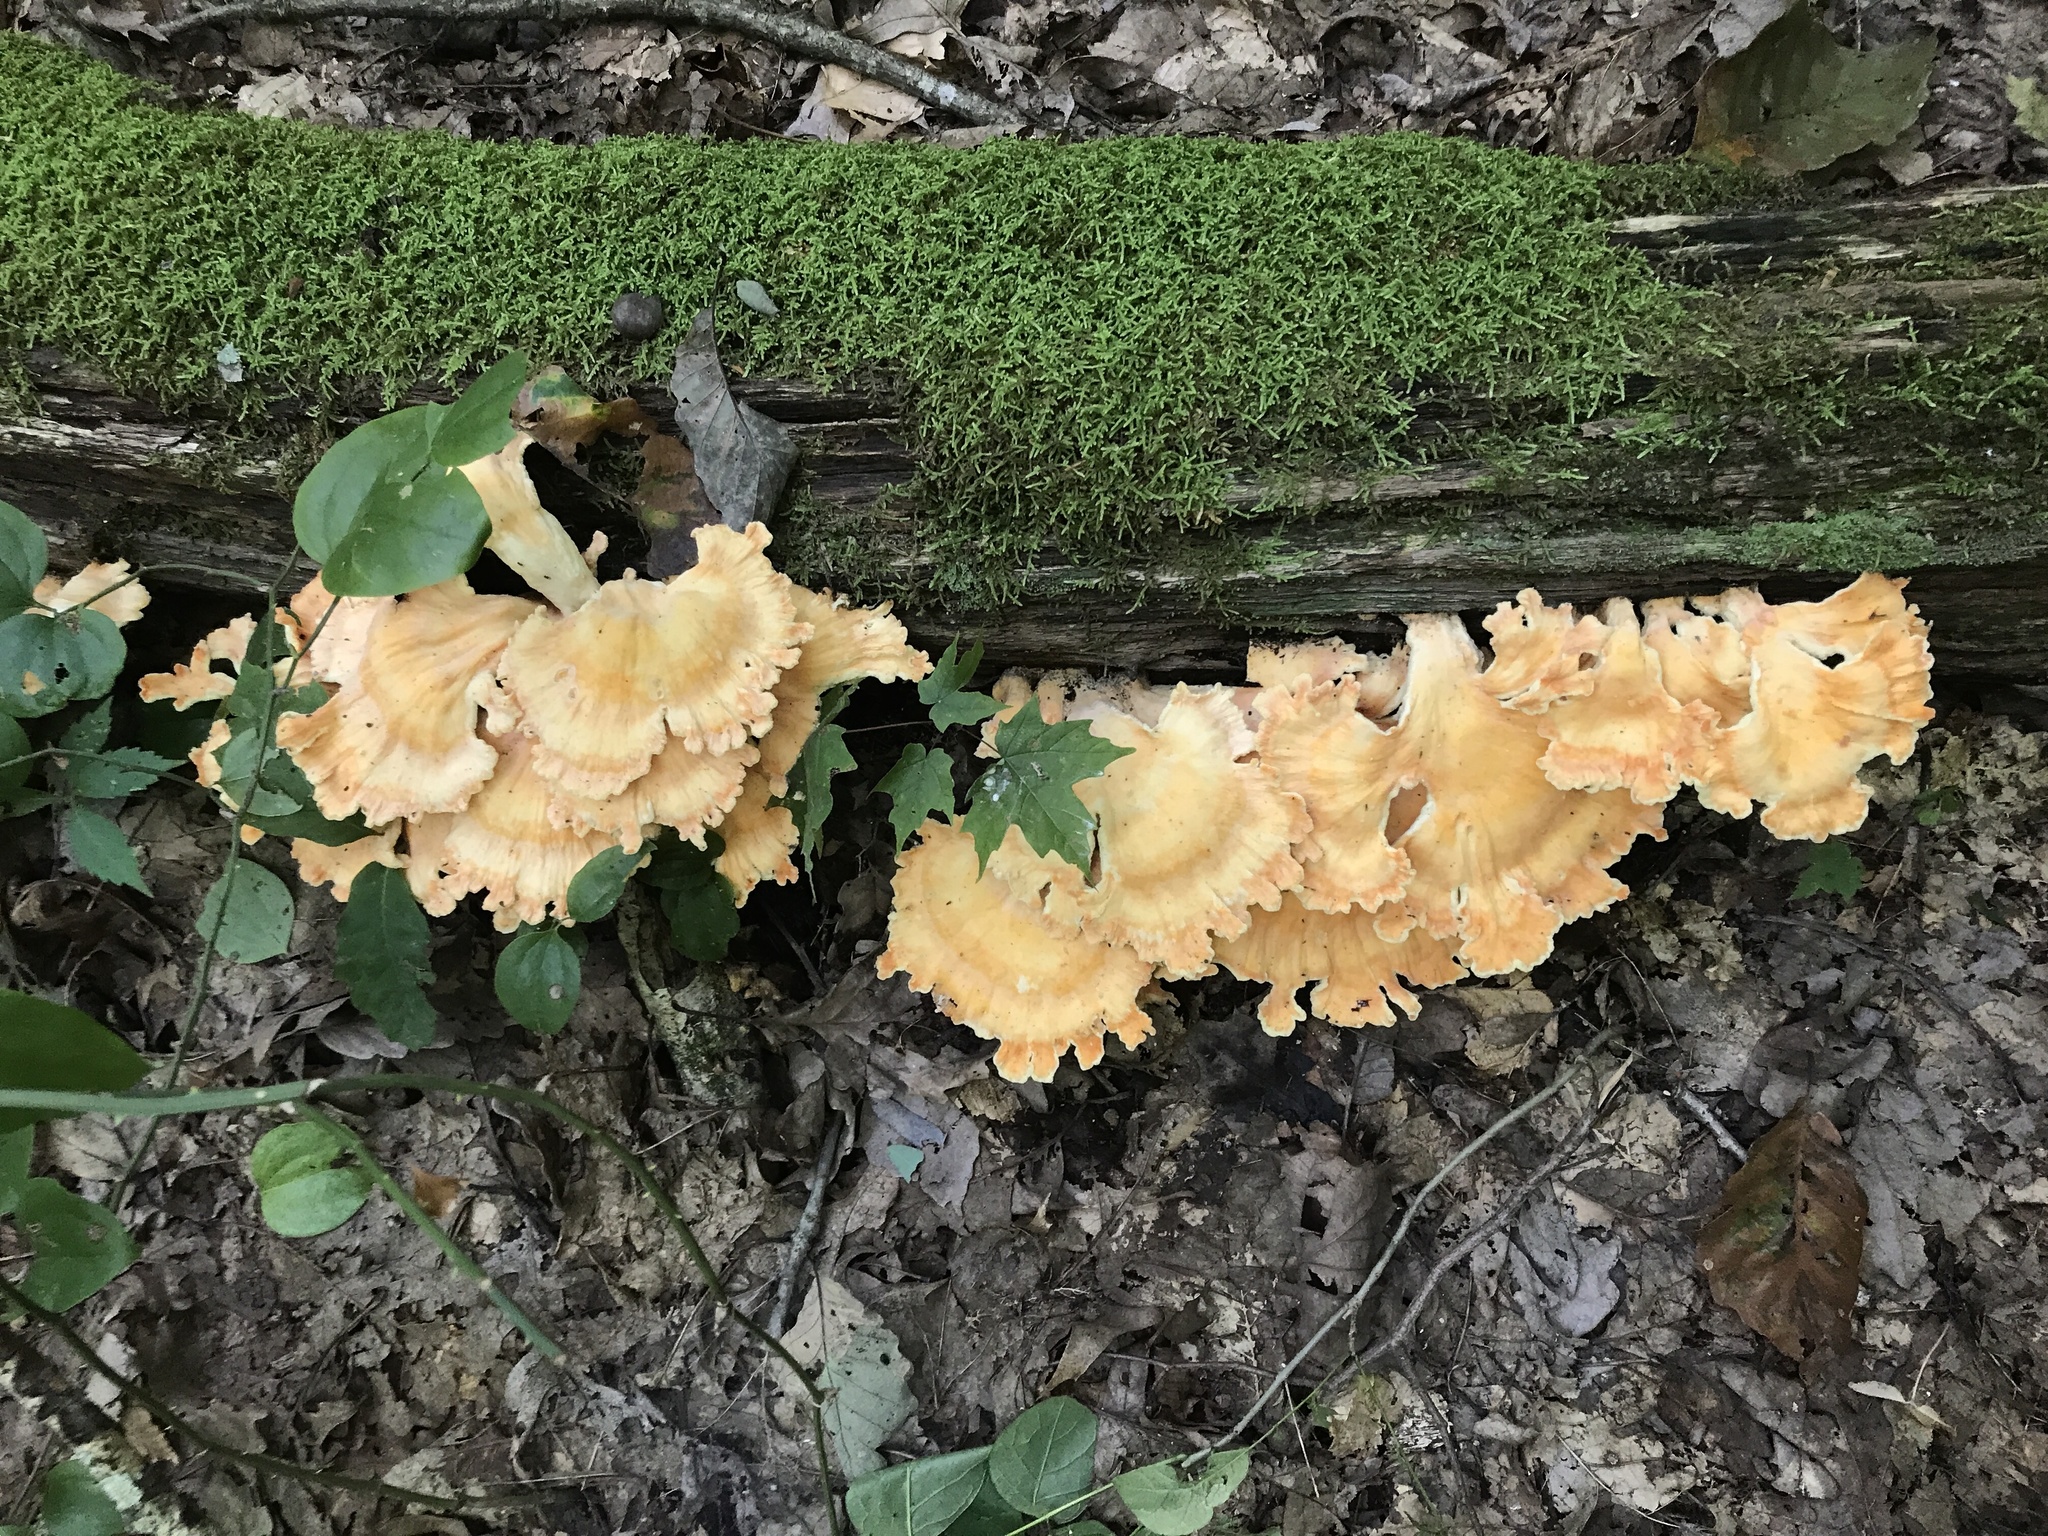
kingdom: Fungi
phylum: Basidiomycota
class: Agaricomycetes
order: Polyporales
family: Laetiporaceae
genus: Laetiporus
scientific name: Laetiporus sulphureus
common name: Chicken of the woods
